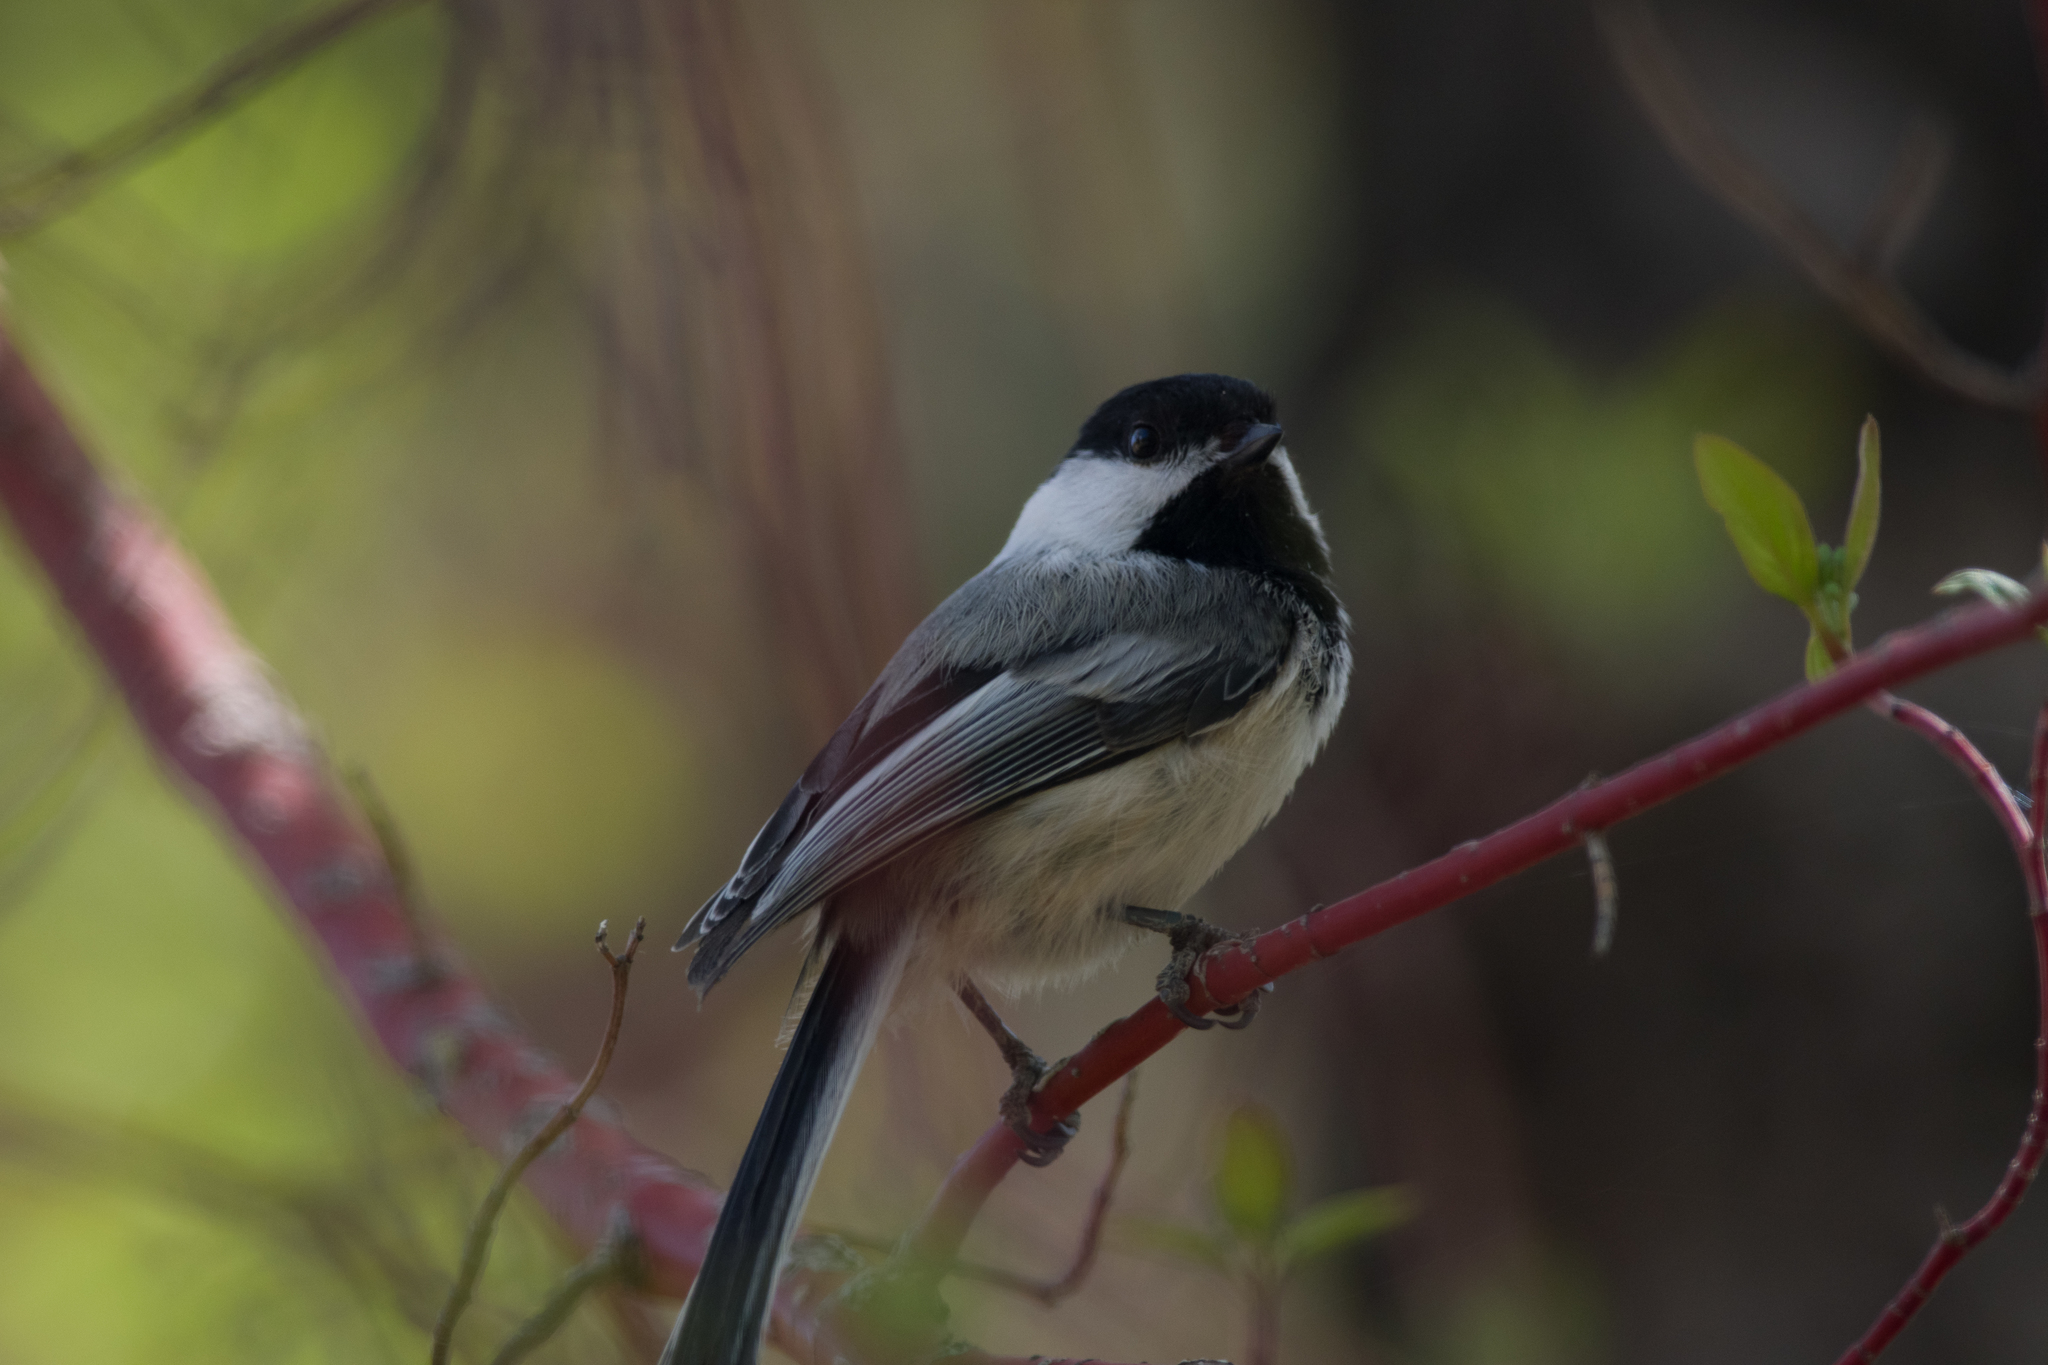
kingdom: Animalia
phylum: Chordata
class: Aves
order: Passeriformes
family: Paridae
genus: Poecile
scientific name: Poecile atricapillus
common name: Black-capped chickadee
